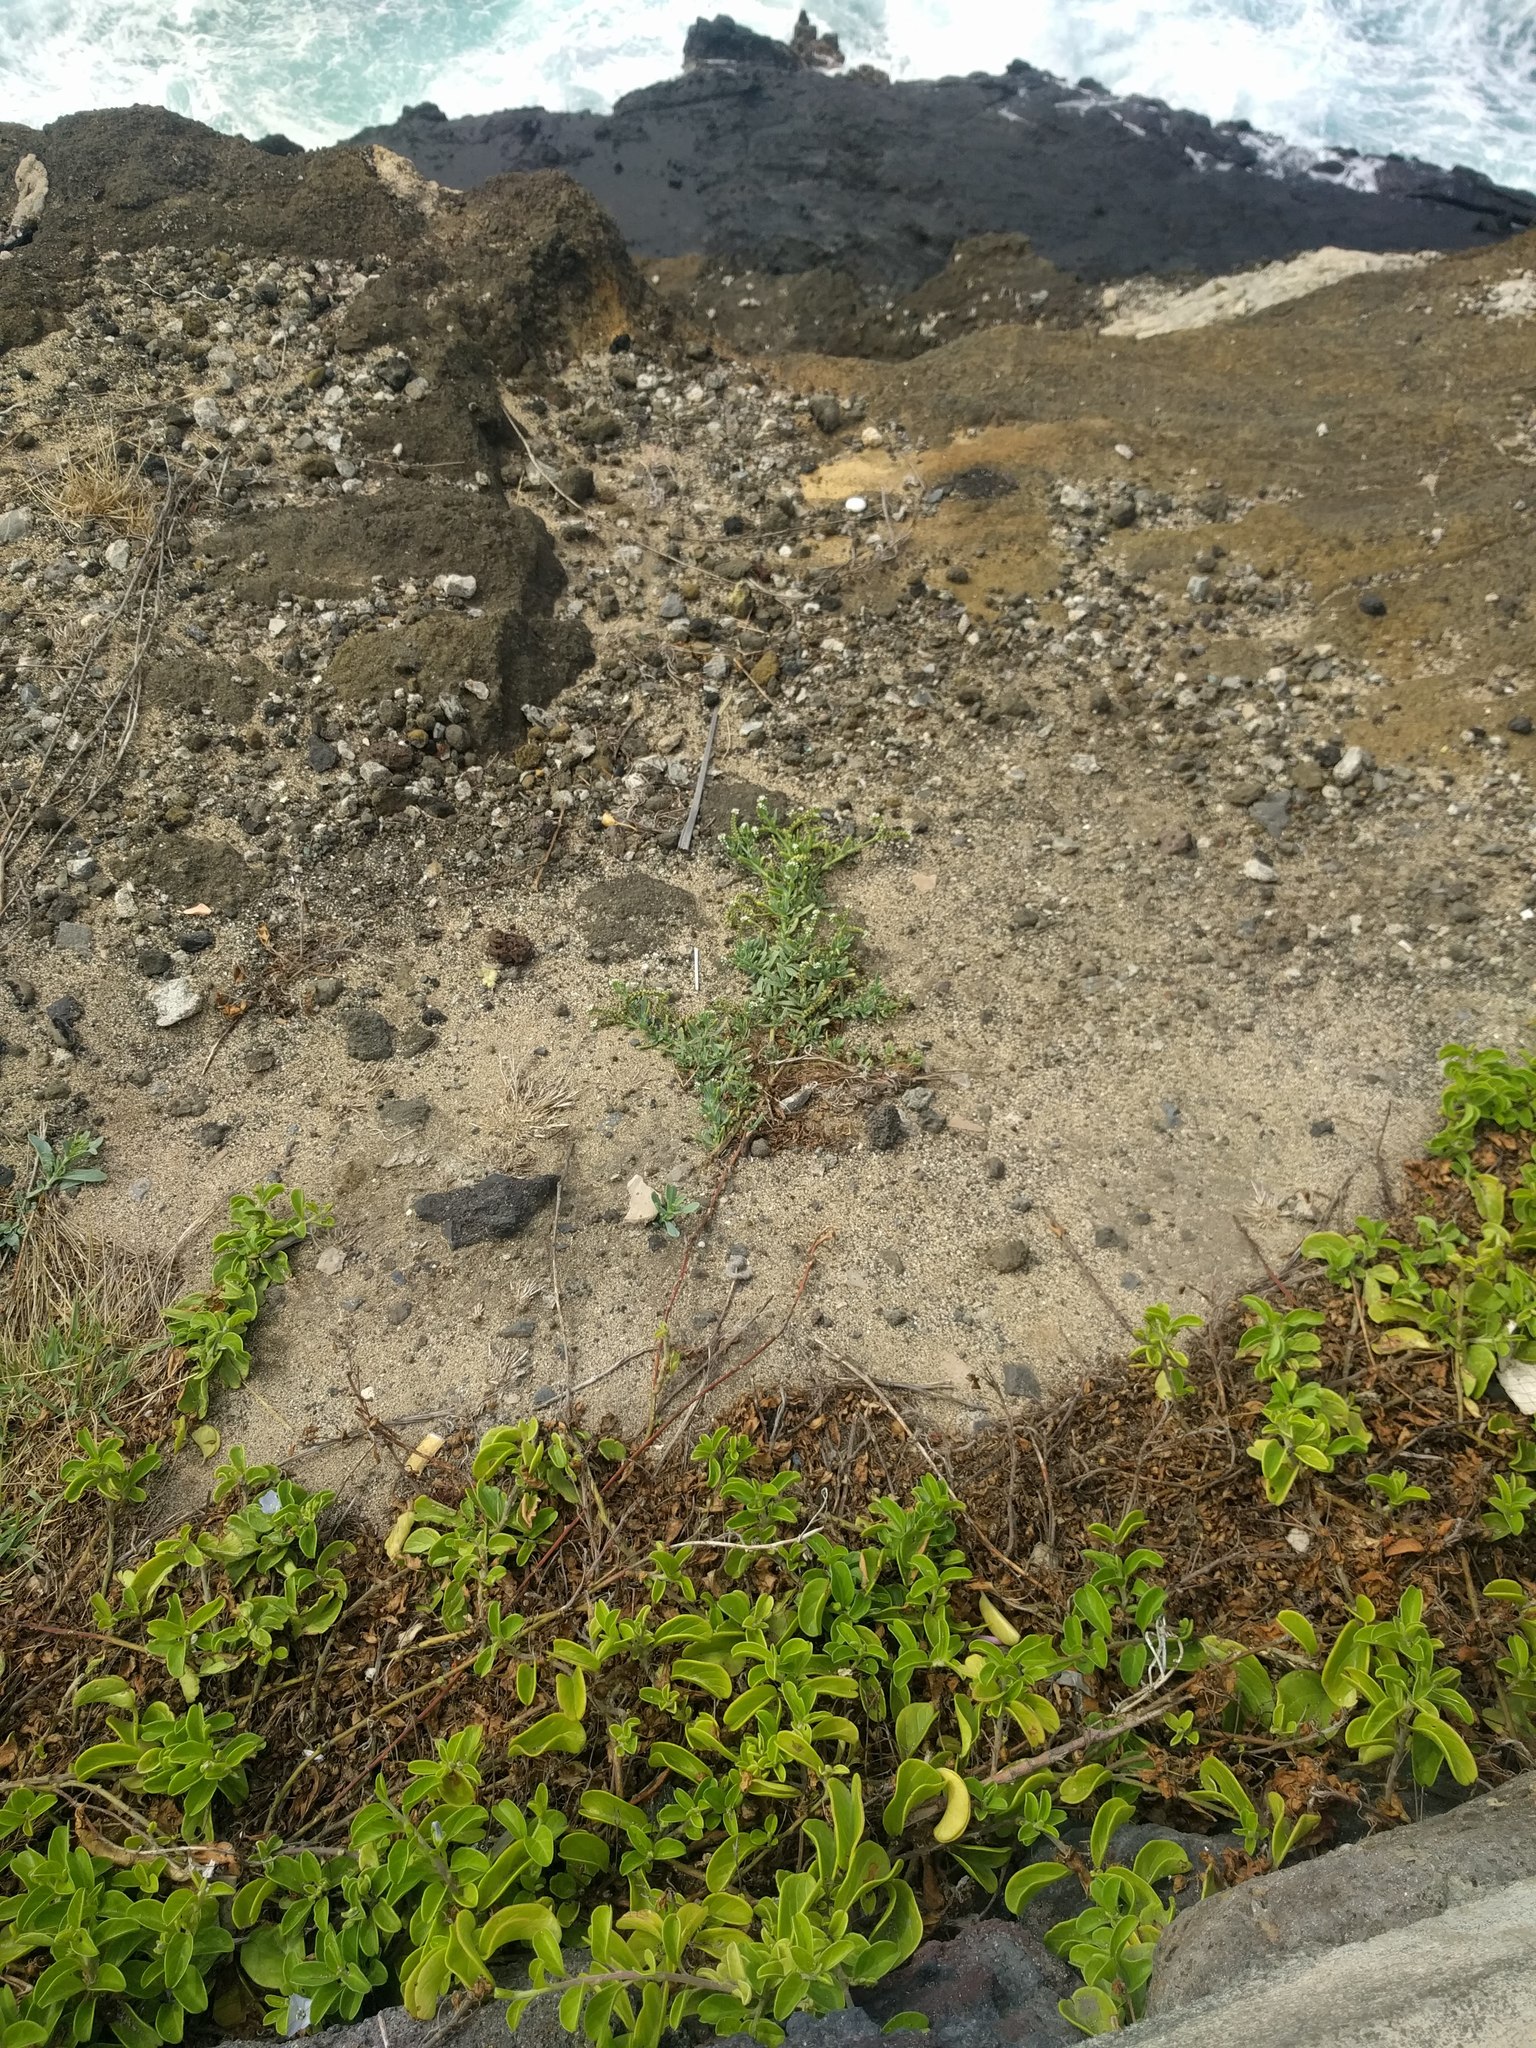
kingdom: Plantae
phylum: Tracheophyta
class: Magnoliopsida
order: Boraginales
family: Heliotropiaceae
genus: Heliotropium
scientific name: Heliotropium curassavicum
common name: Seaside heliotrope
